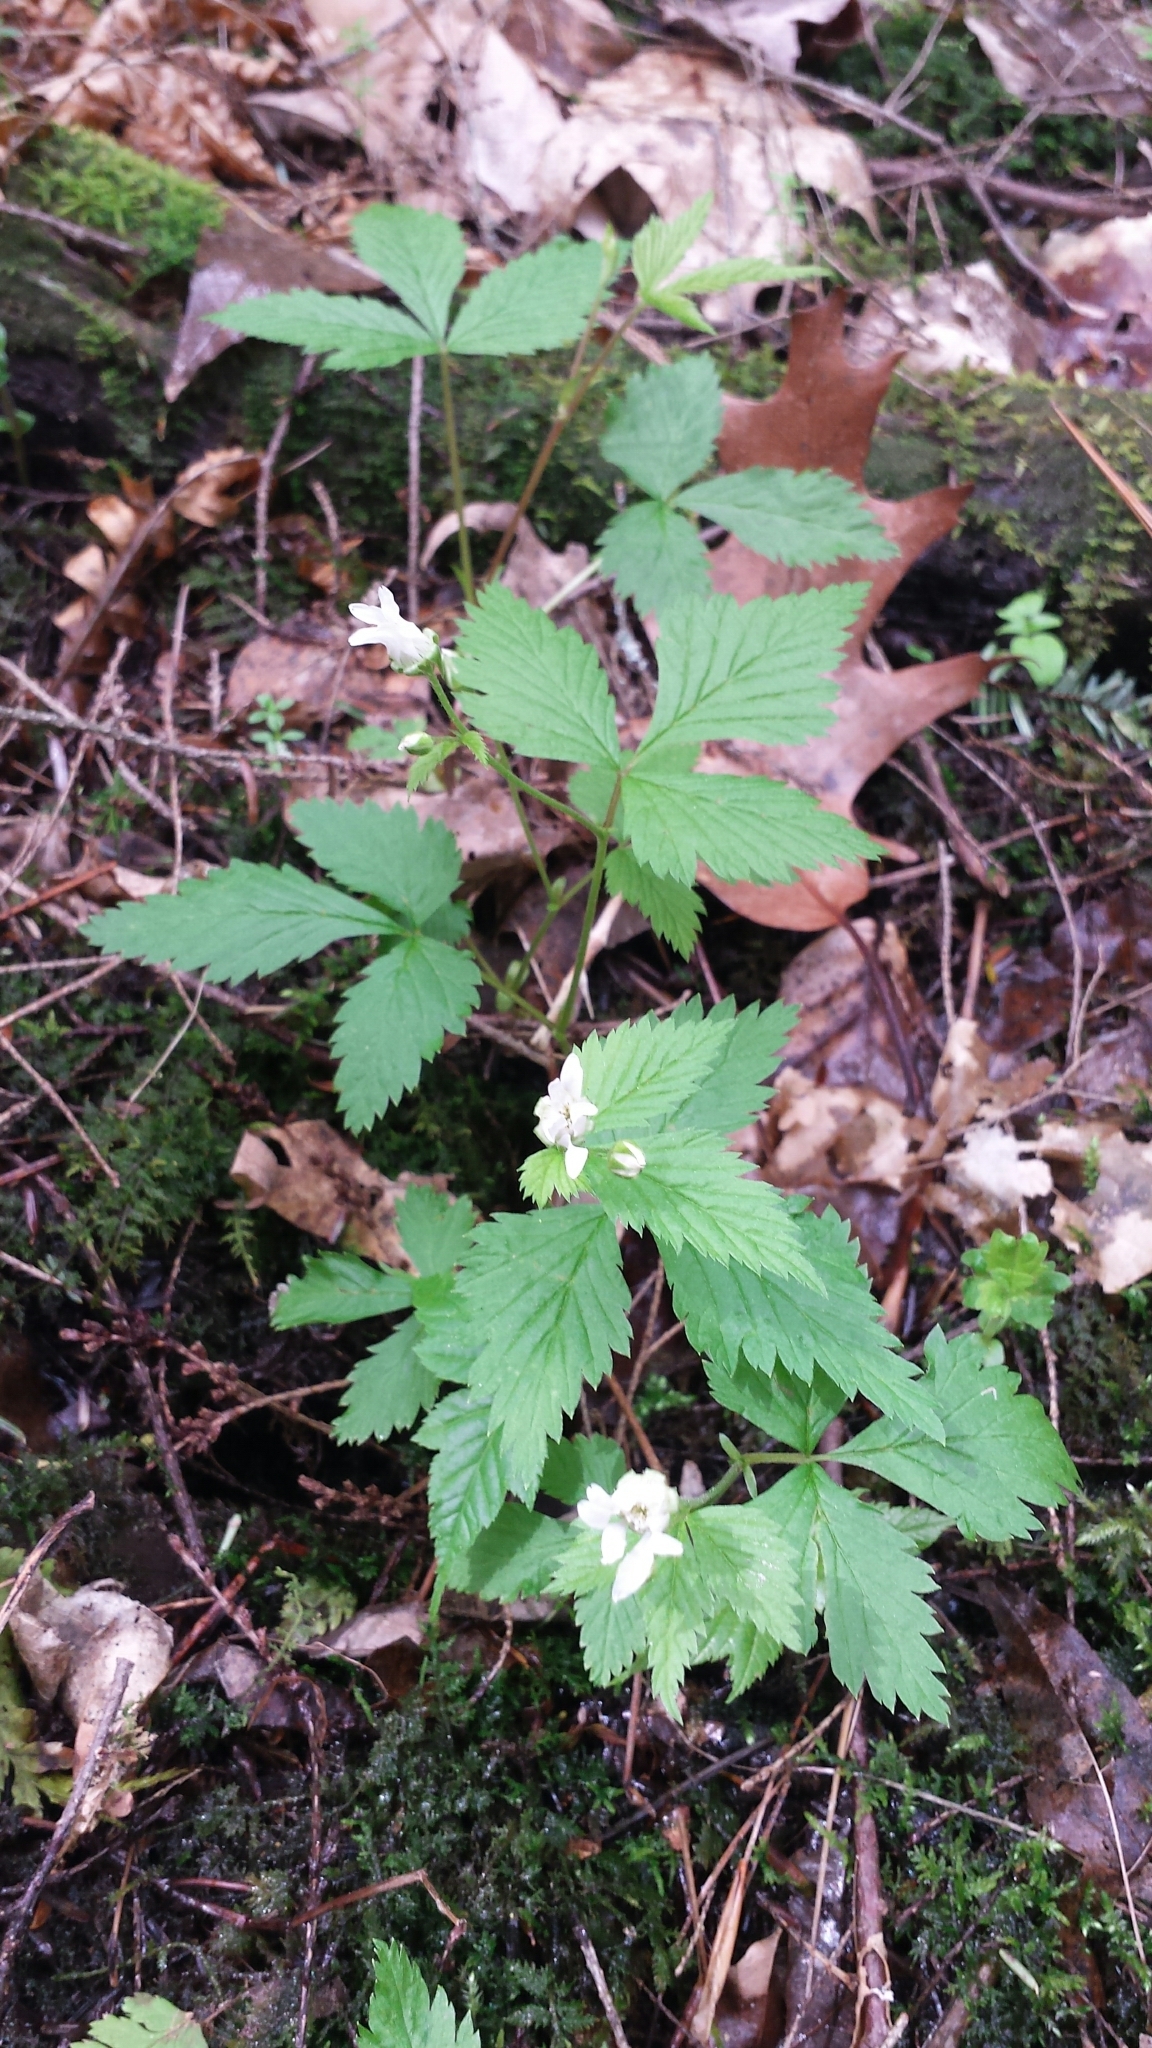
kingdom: Plantae
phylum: Tracheophyta
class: Magnoliopsida
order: Rosales
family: Rosaceae
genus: Rubus
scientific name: Rubus pubescens
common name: Dwarf raspberry
